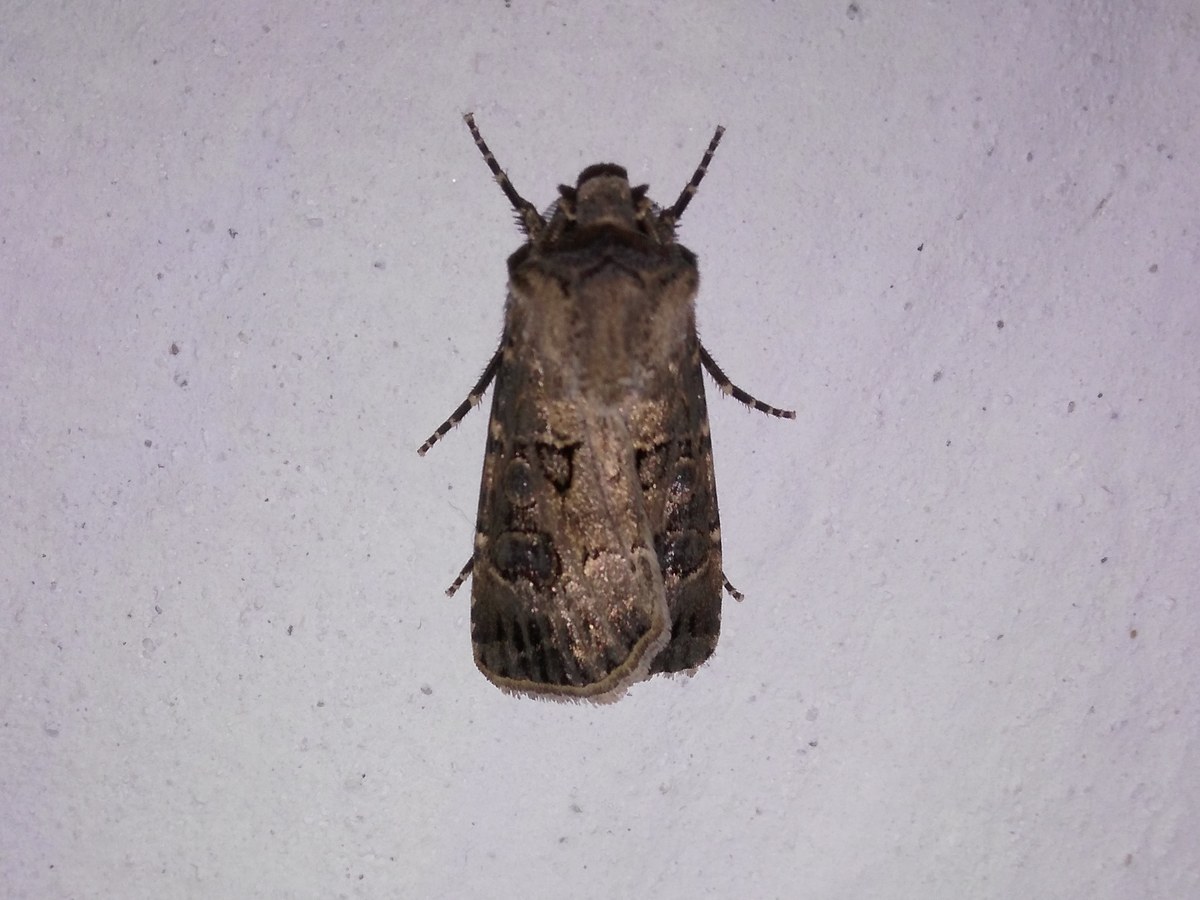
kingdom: Animalia
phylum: Arthropoda
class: Insecta
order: Lepidoptera
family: Noctuidae
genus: Agrotis
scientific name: Agrotis bigramma
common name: Great dart
